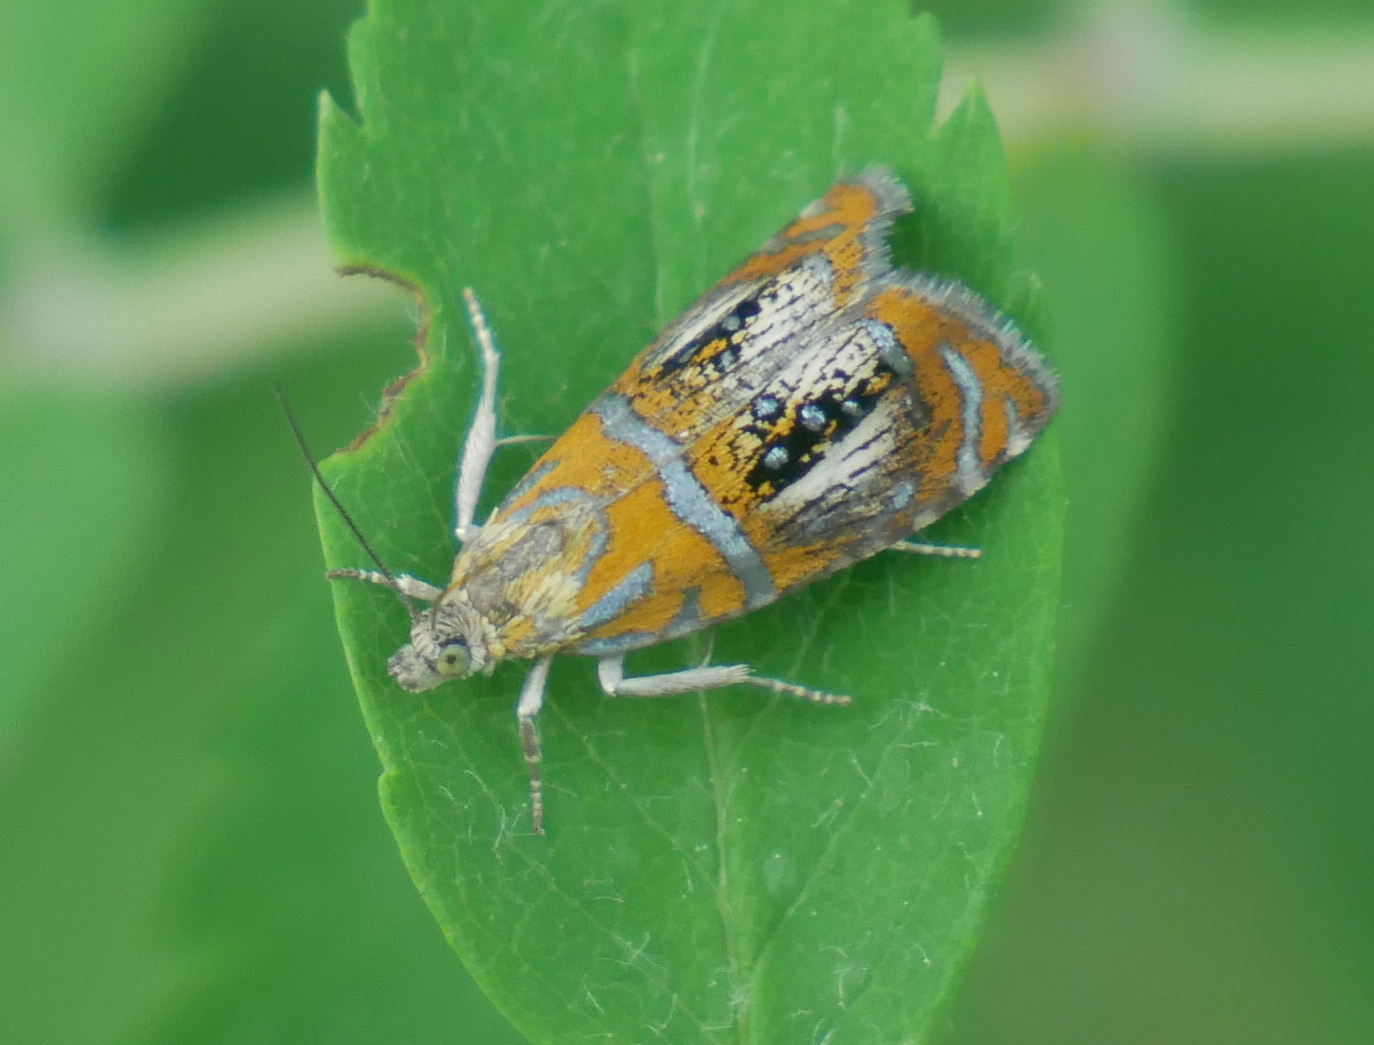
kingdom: Animalia
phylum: Arthropoda
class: Insecta
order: Lepidoptera
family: Tortricidae
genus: Olethreutes
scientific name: Olethreutes arcuella
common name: Arched marble
